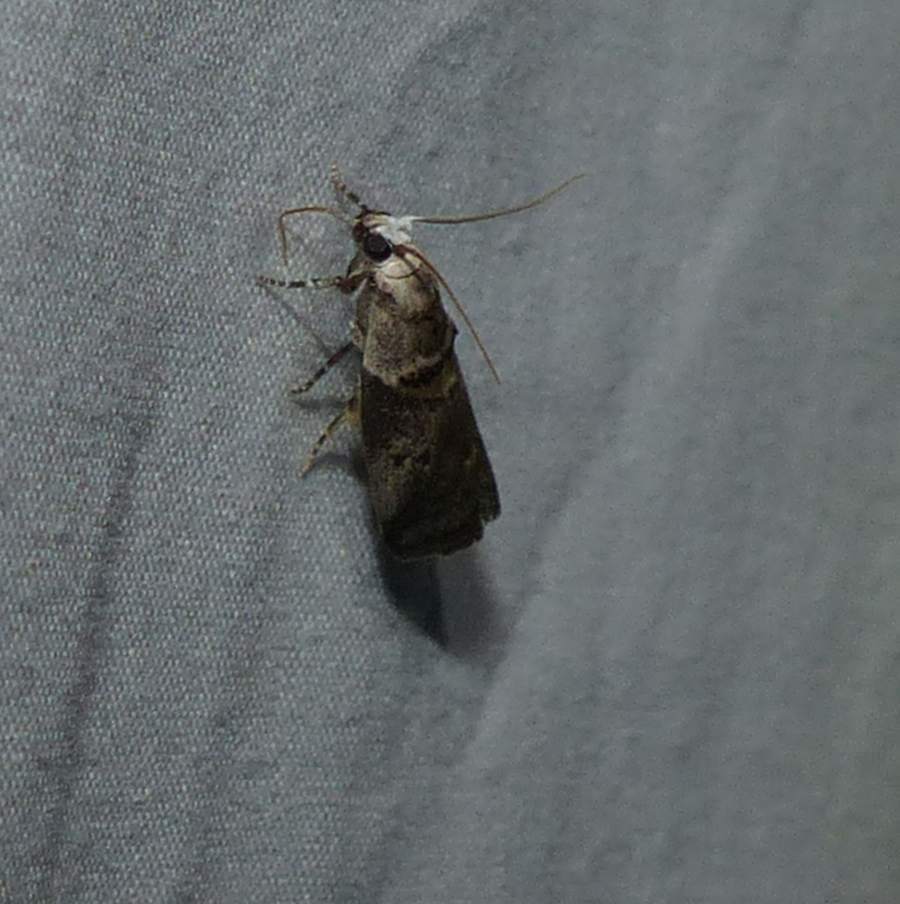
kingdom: Animalia
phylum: Arthropoda
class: Insecta
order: Lepidoptera
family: Pyralidae
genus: Acrobasis
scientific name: Acrobasis juglandis
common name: Pecan leaf casebearer moth
